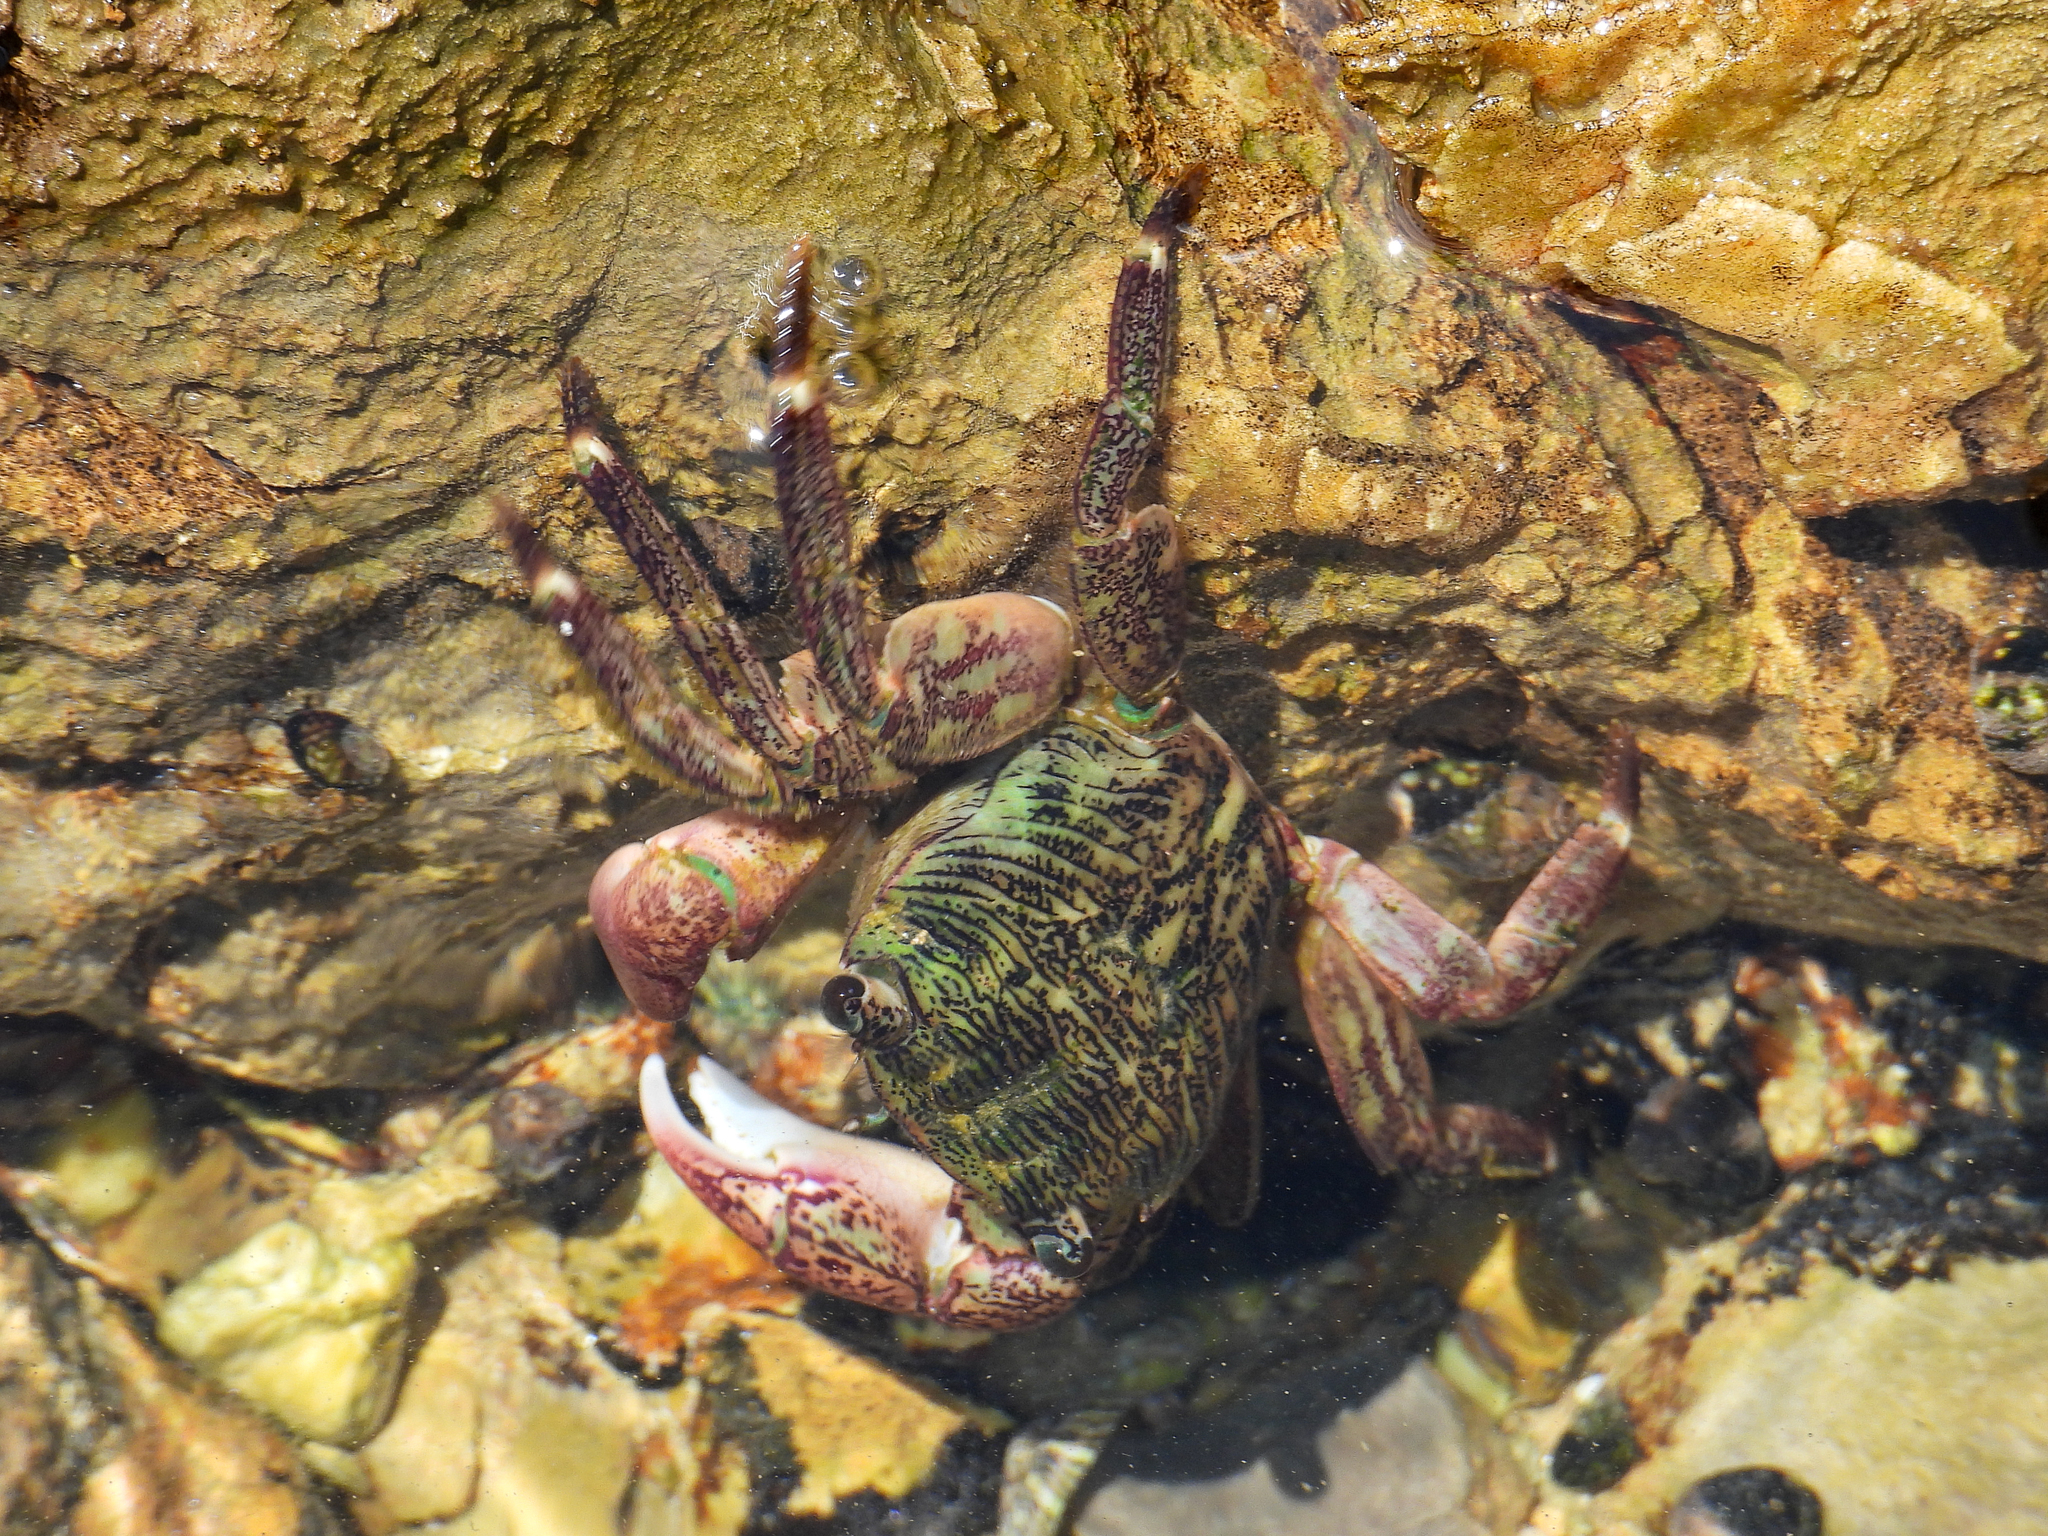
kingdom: Animalia
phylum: Arthropoda
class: Malacostraca
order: Decapoda
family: Grapsidae
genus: Pachygrapsus
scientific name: Pachygrapsus crassipes
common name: Striped shore crab
